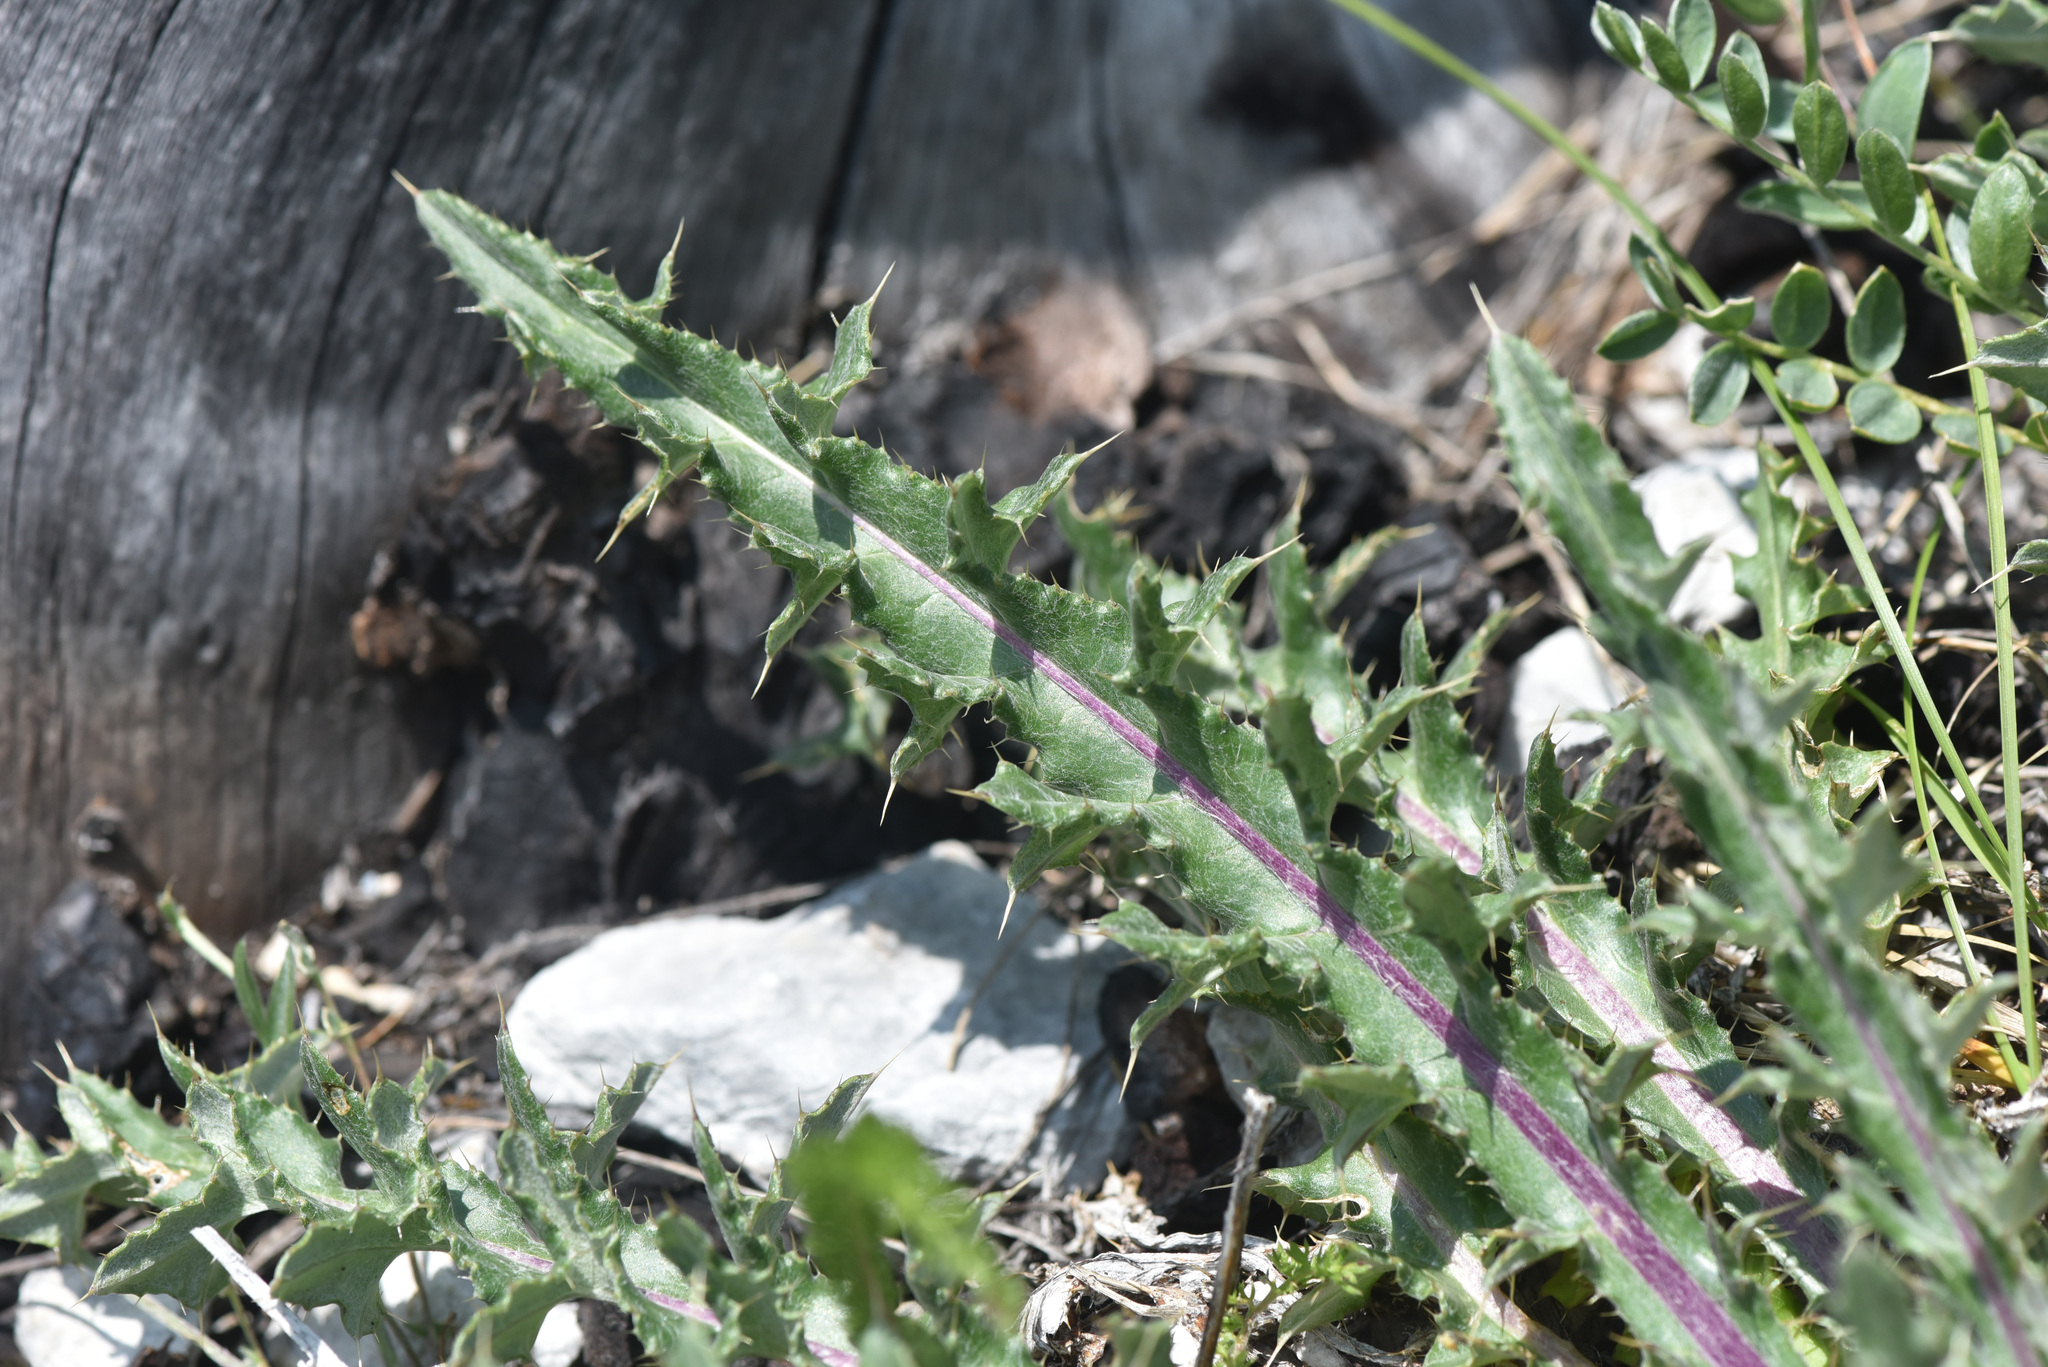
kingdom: Plantae
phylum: Tracheophyta
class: Magnoliopsida
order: Asterales
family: Asteraceae
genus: Cirsium
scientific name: Cirsium hookerianum
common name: Hooker's thistle
